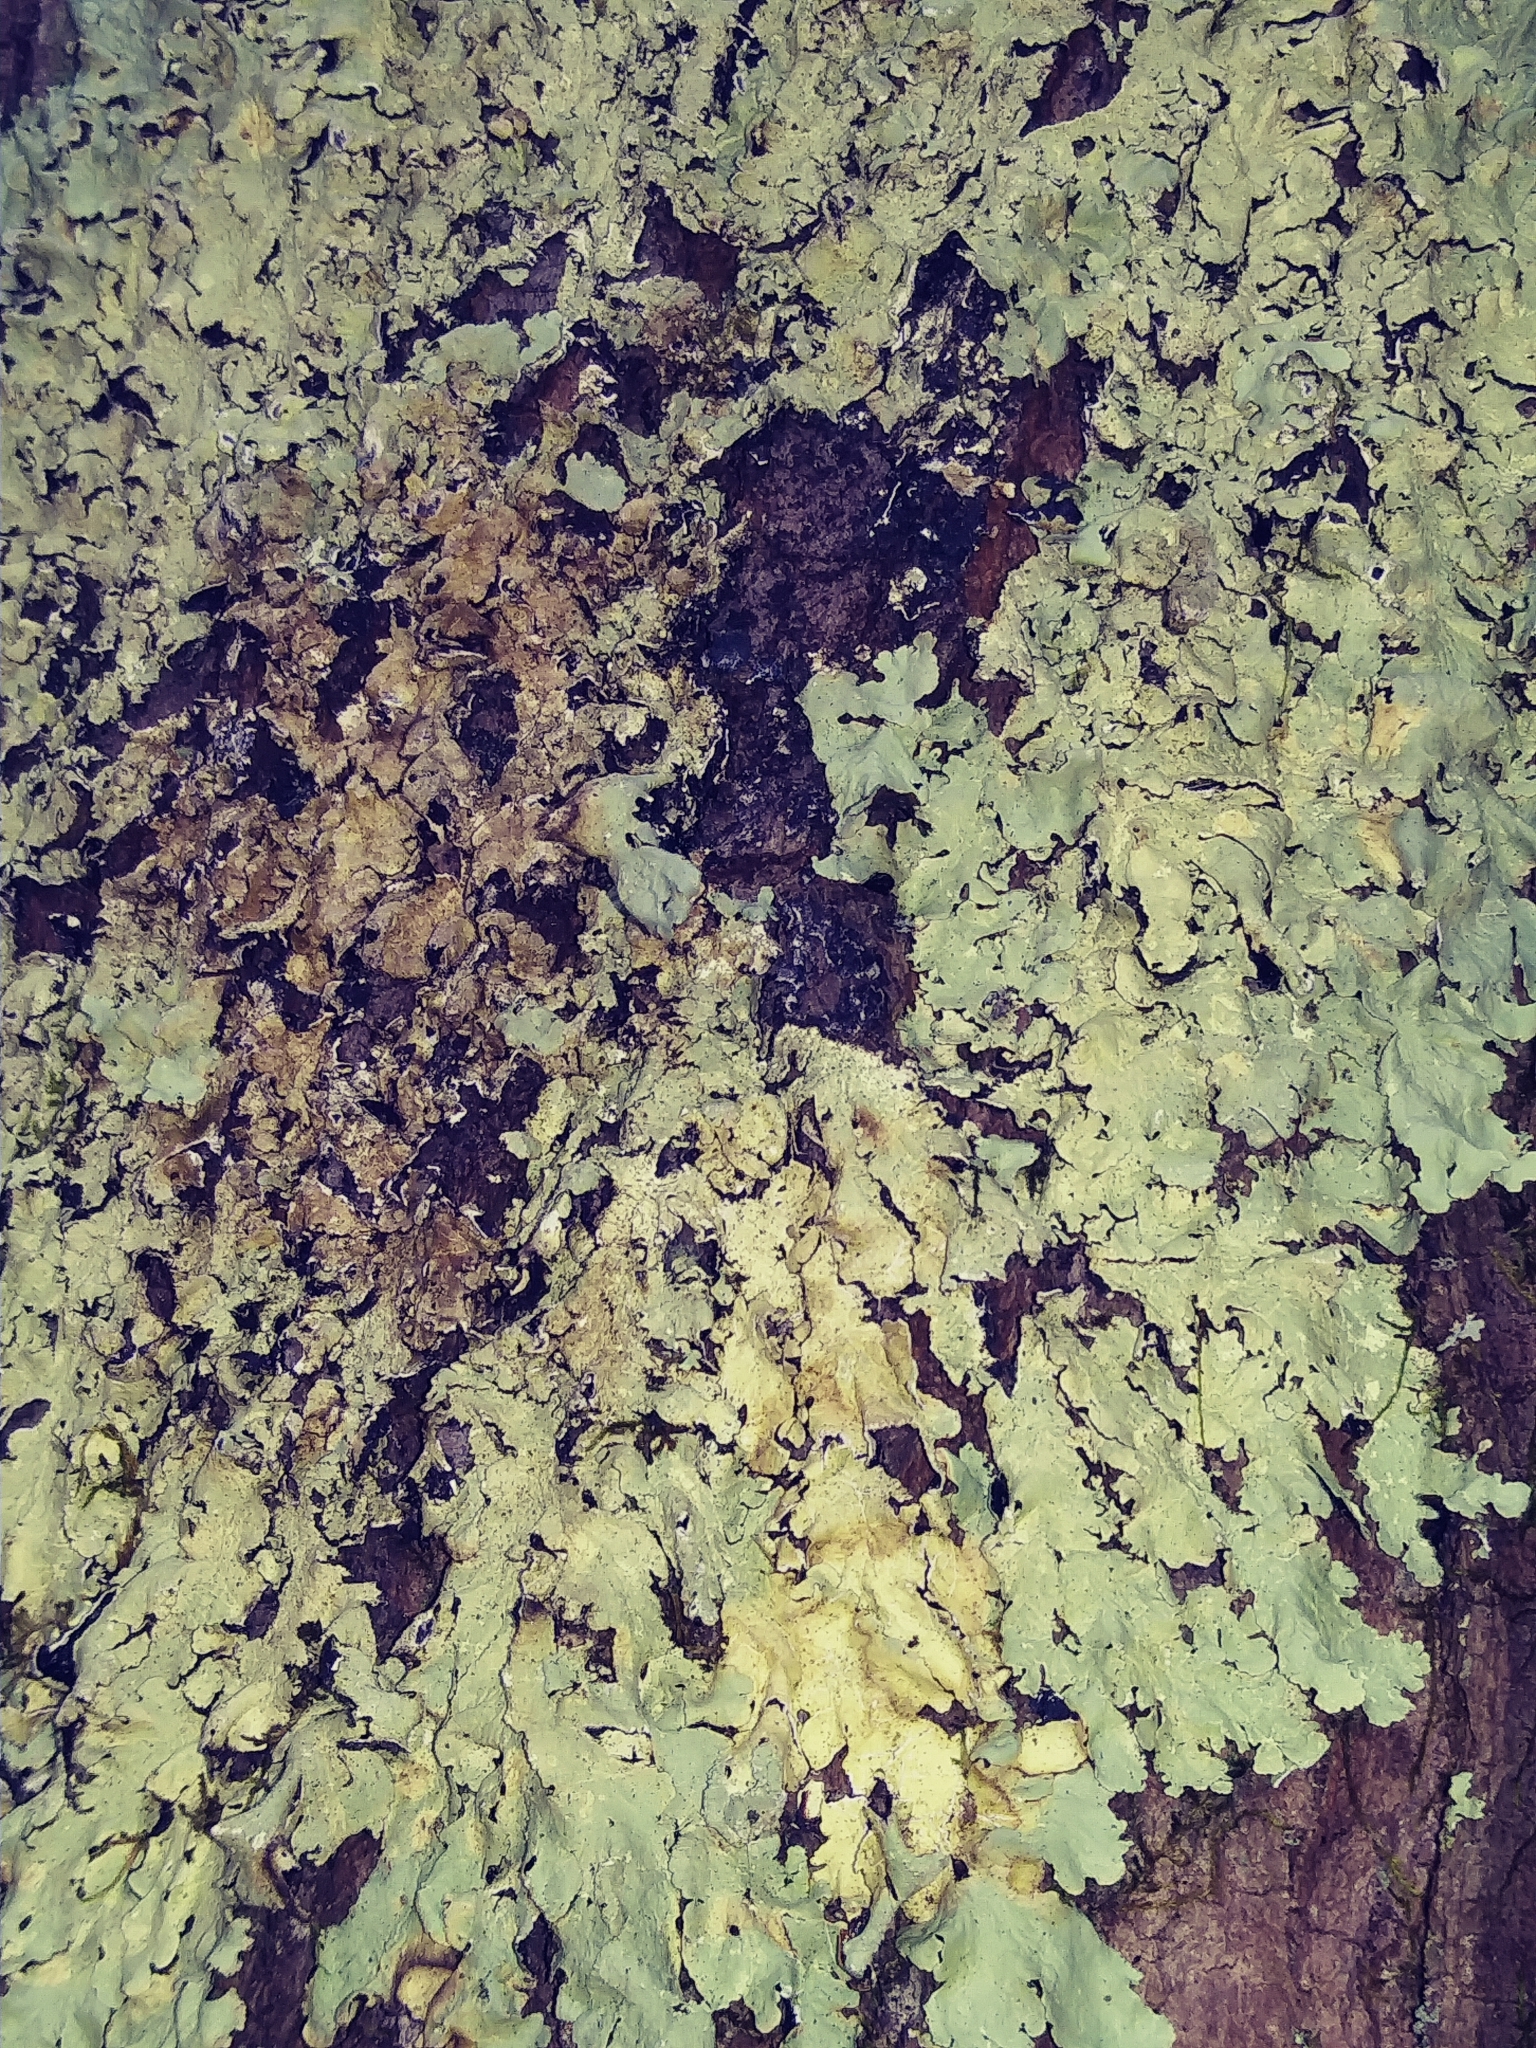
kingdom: Fungi
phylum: Ascomycota
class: Lecanoromycetes
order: Lecanorales
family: Parmeliaceae
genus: Flavoparmelia
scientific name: Flavoparmelia caperata
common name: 40-mile per hour lichen
